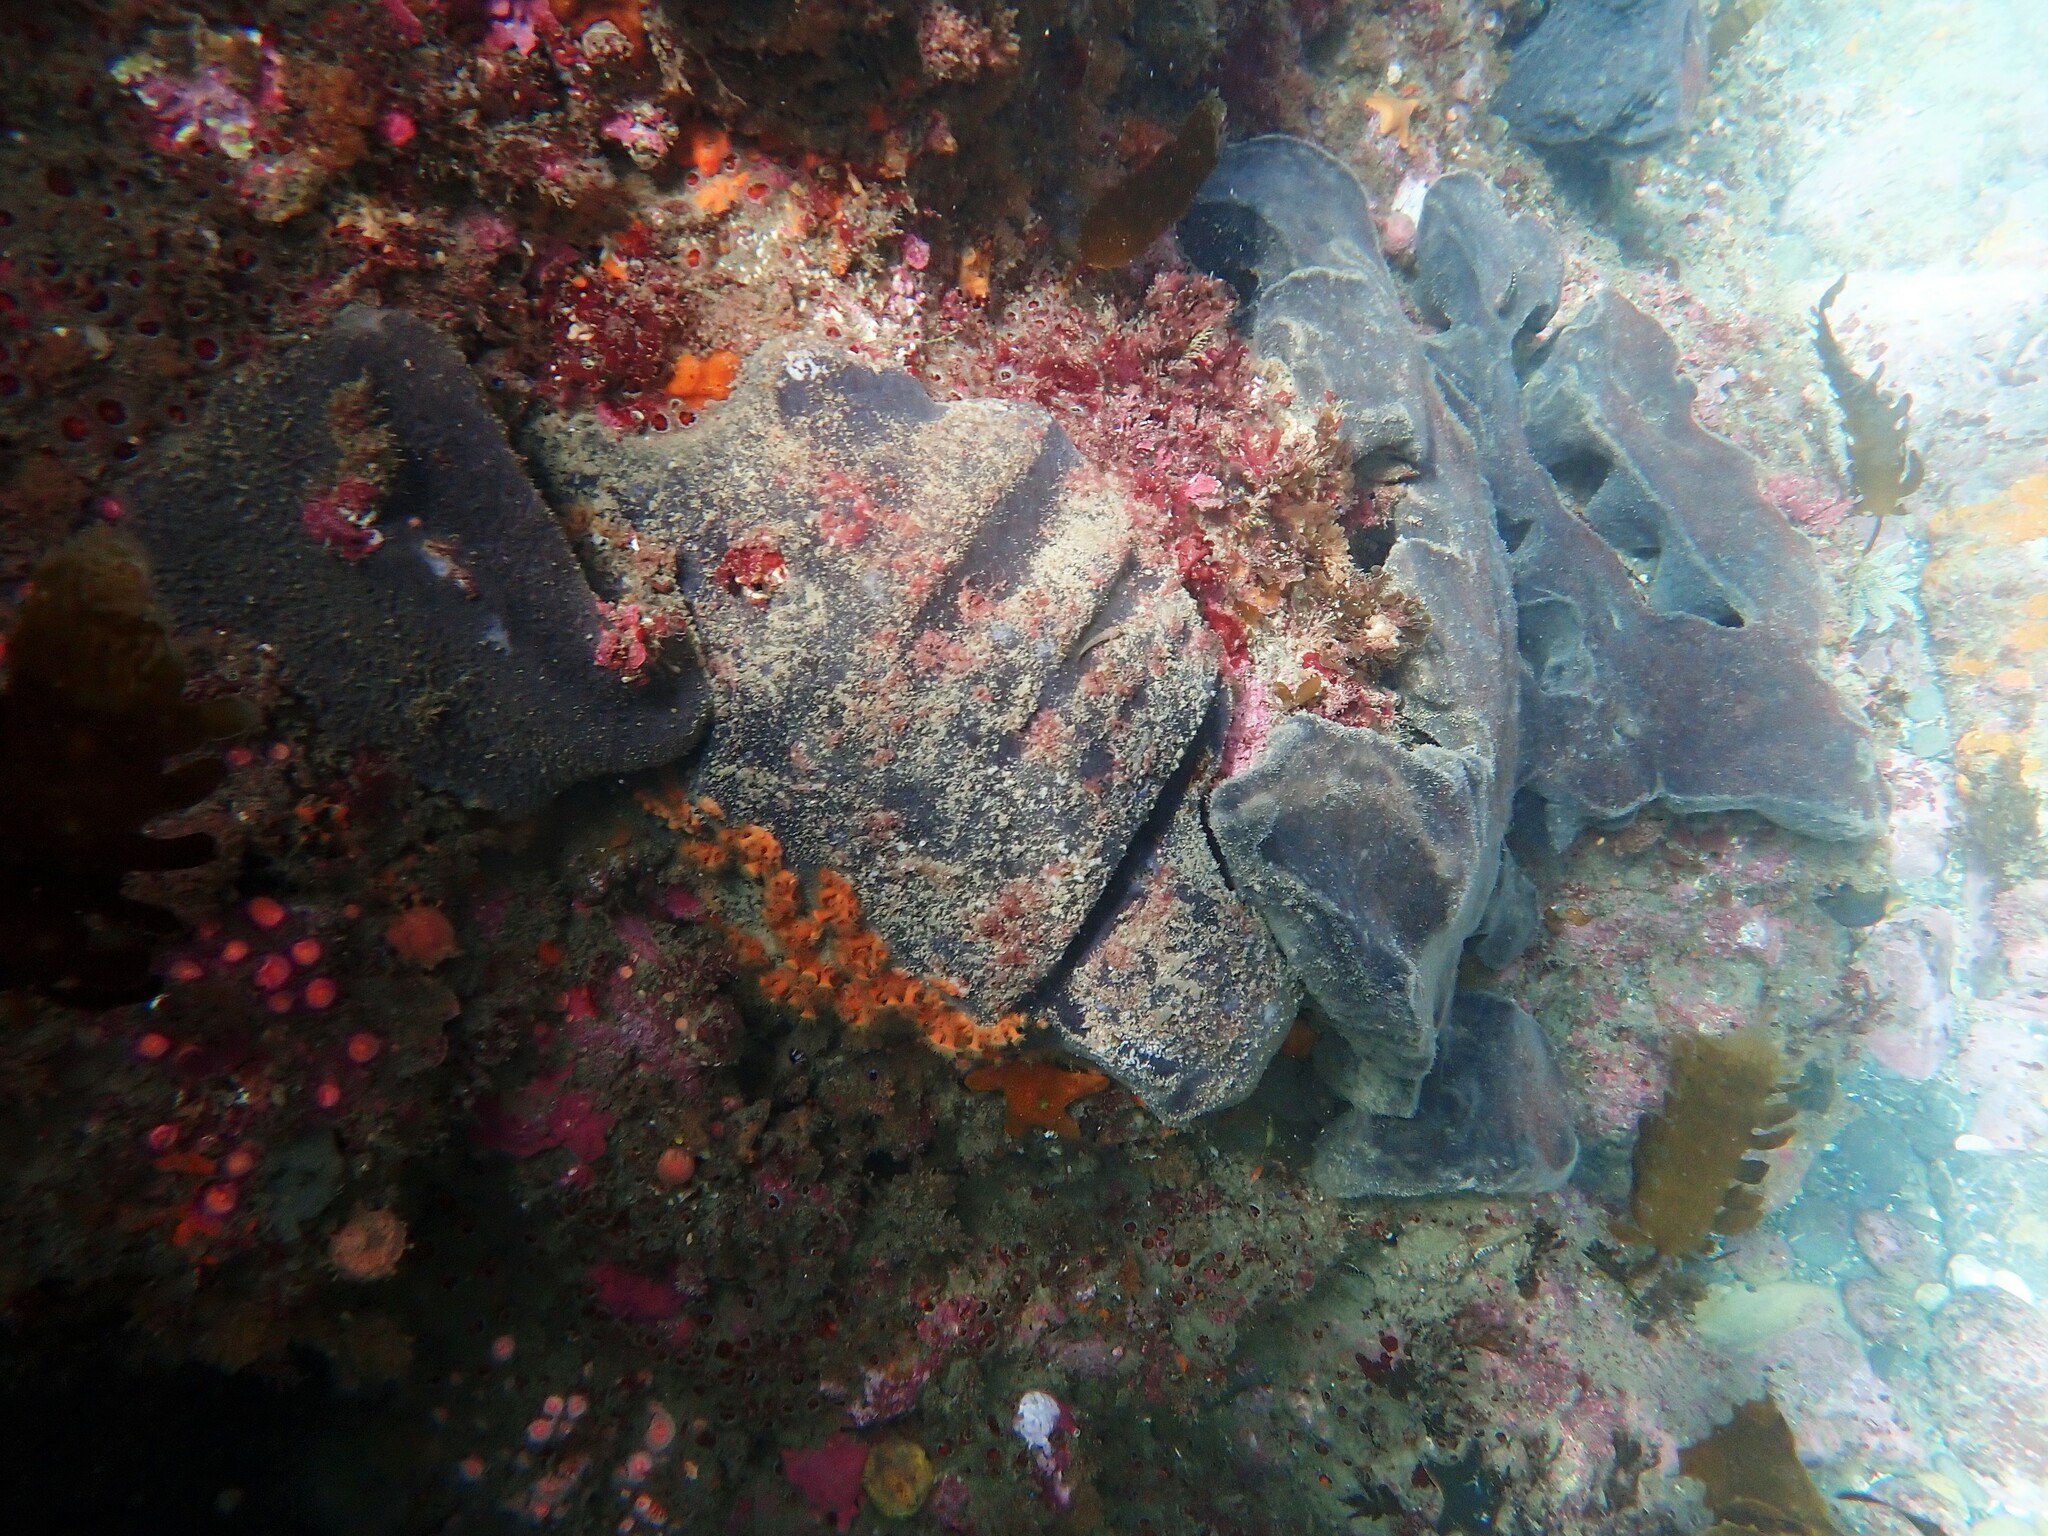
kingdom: Animalia
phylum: Porifera
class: Demospongiae
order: Tetractinellida
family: Ancorinidae
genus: Ecionemia
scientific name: Ecionemia alata
